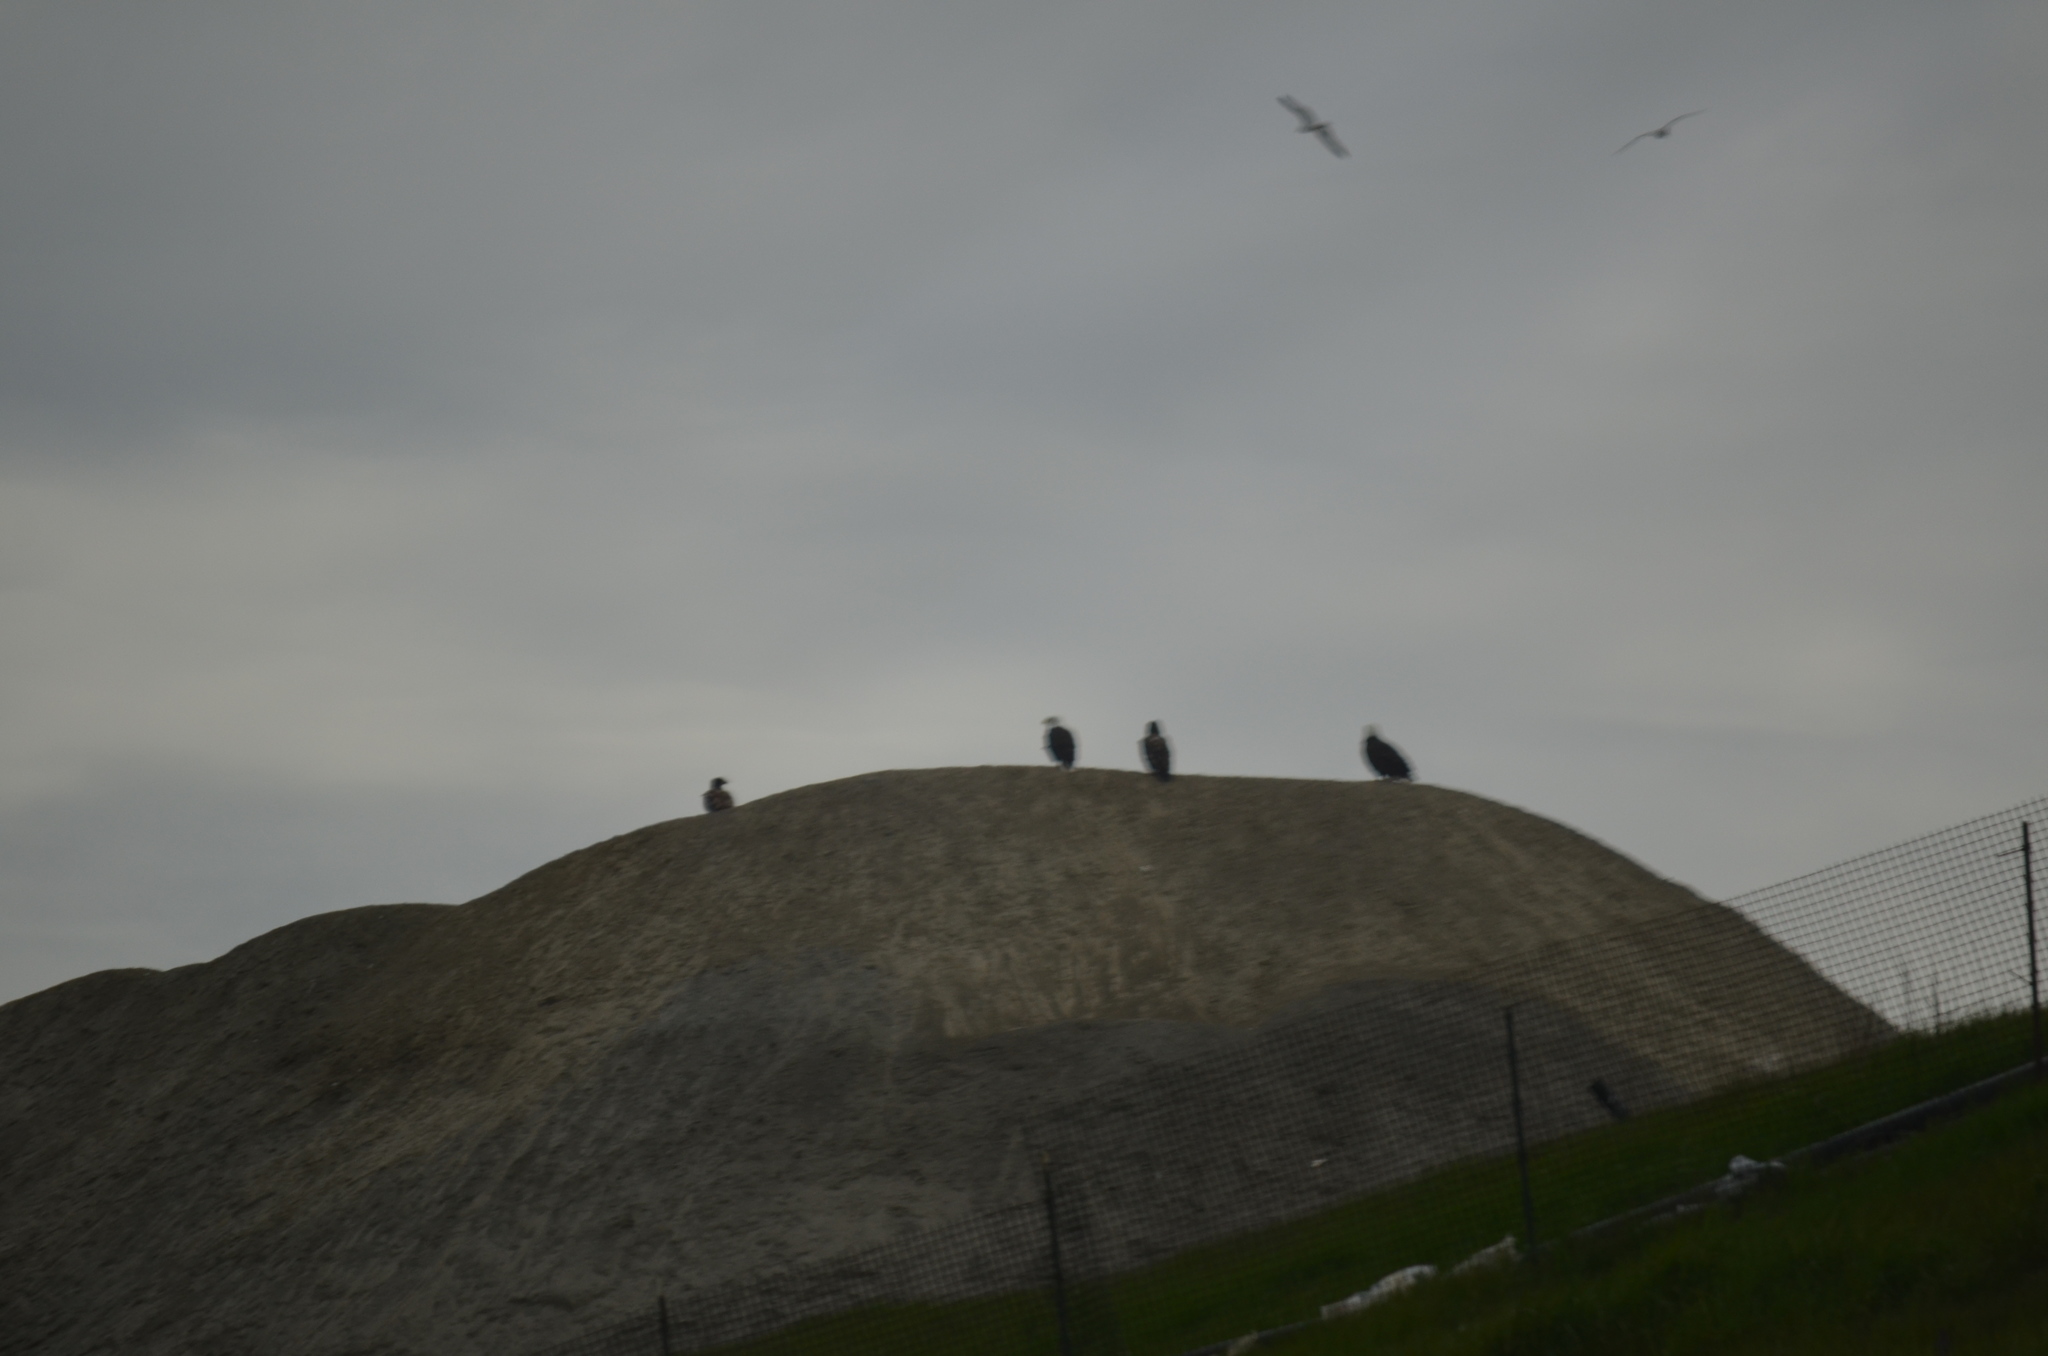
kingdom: Animalia
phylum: Chordata
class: Aves
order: Accipitriformes
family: Accipitridae
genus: Haliaeetus
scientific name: Haliaeetus leucocephalus
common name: Bald eagle
